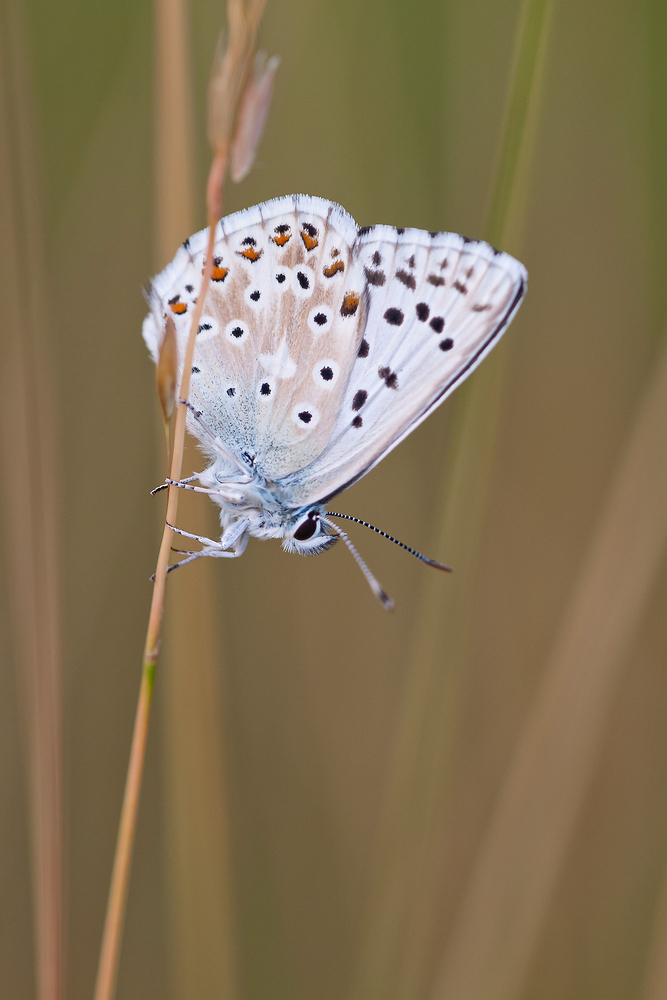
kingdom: Animalia
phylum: Arthropoda
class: Insecta
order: Lepidoptera
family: Lycaenidae
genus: Lysandra
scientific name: Lysandra coridon
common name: Chalkhill blue
